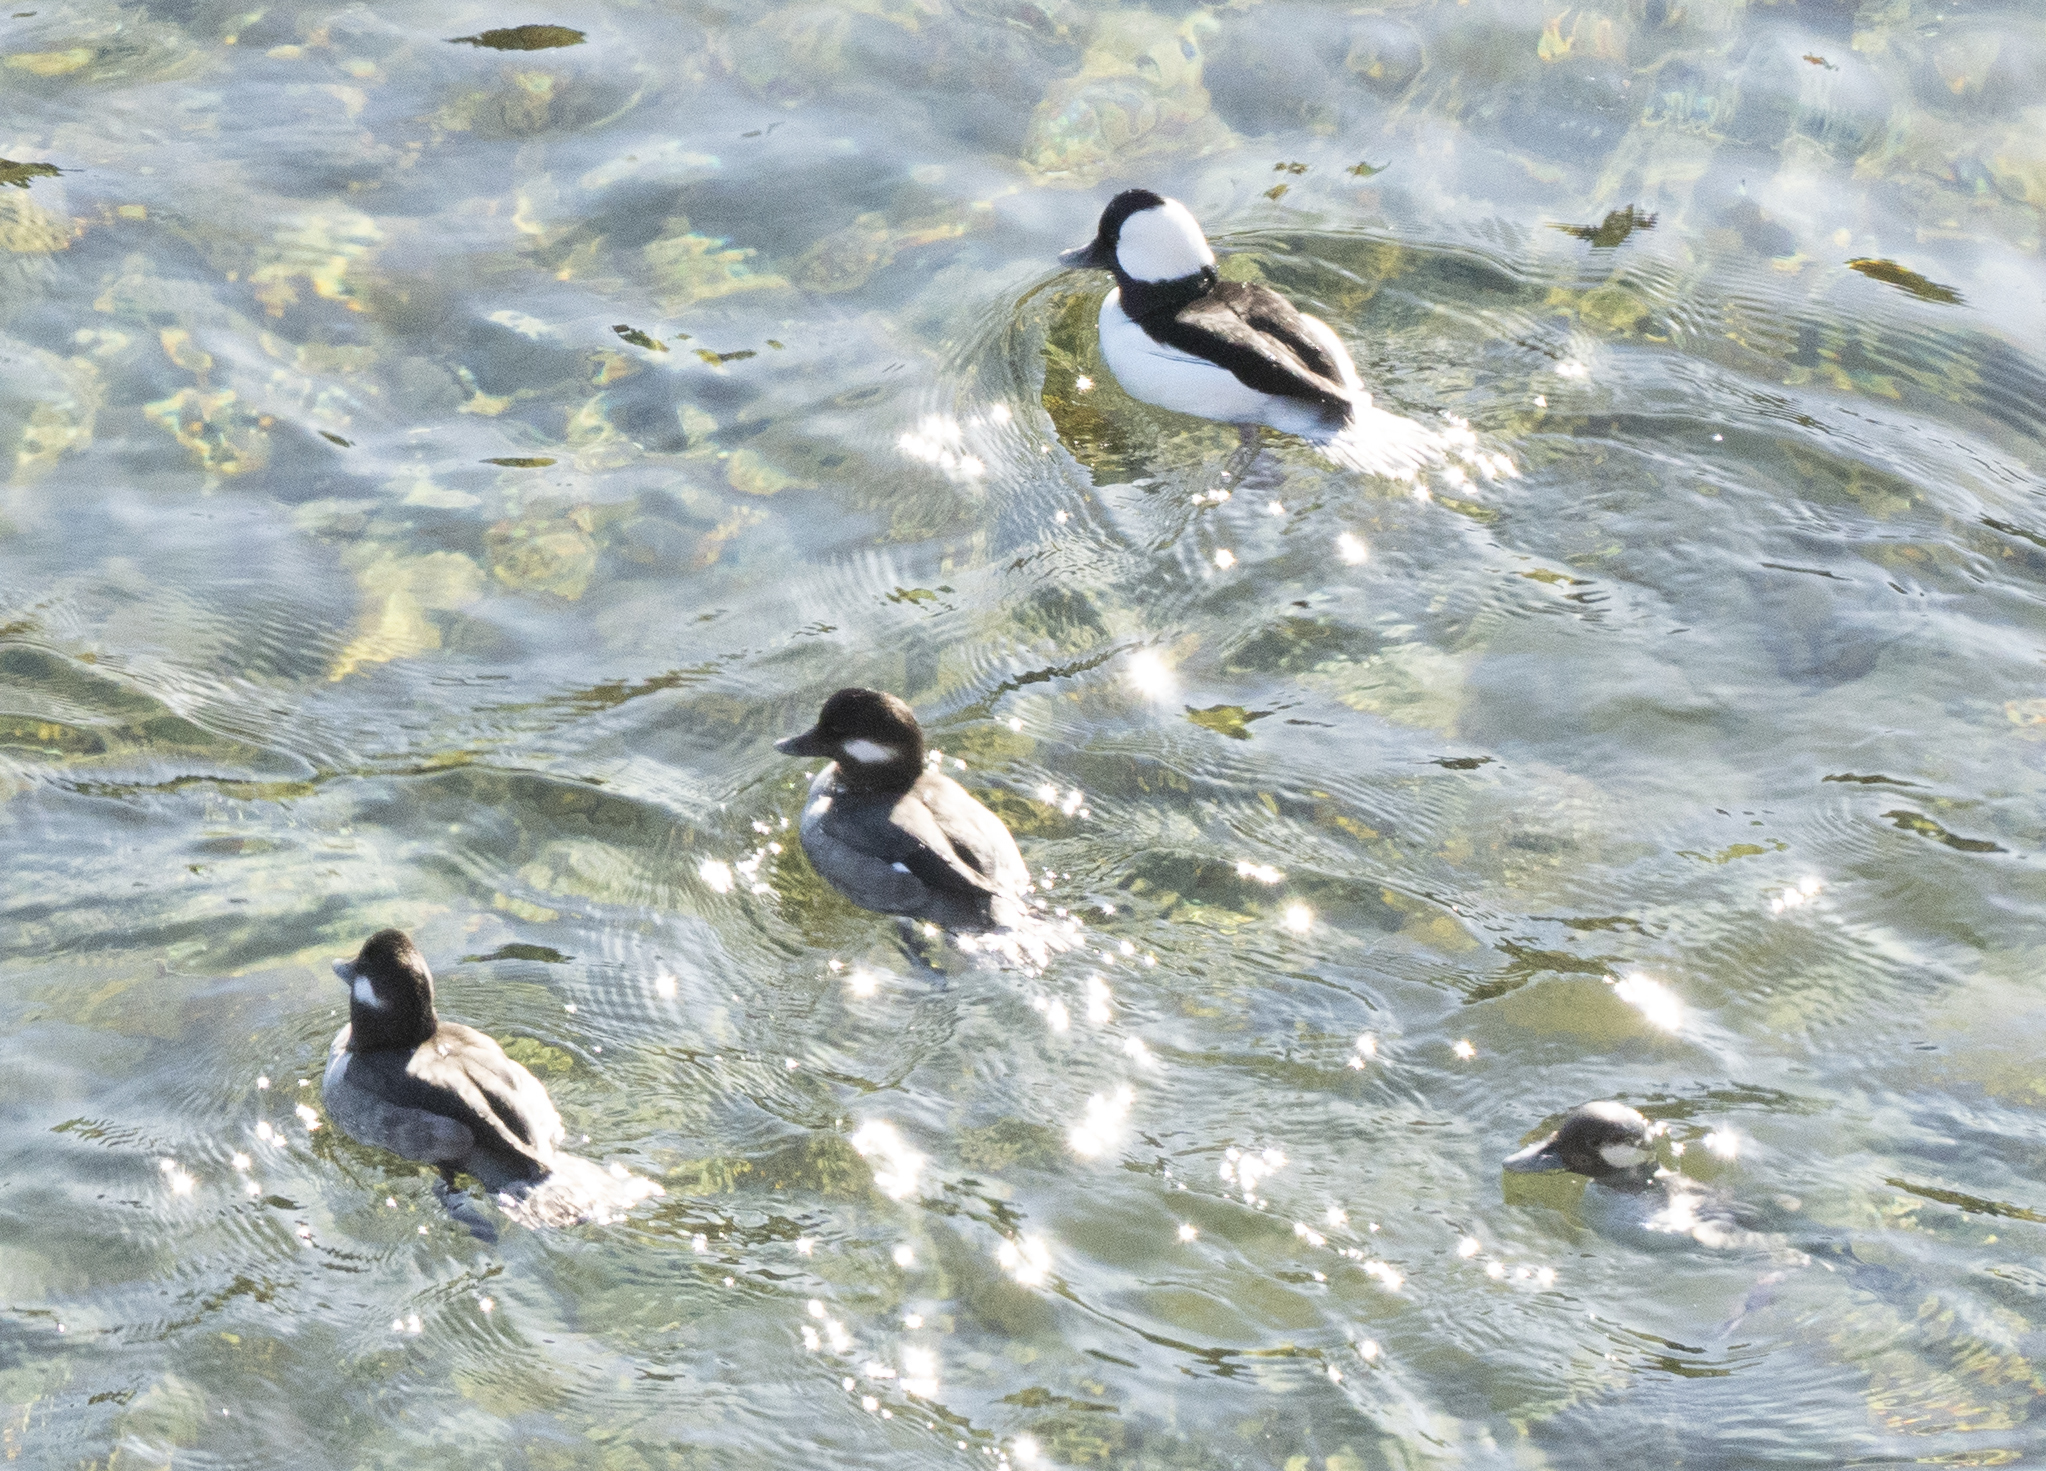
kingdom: Animalia
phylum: Chordata
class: Aves
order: Anseriformes
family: Anatidae
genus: Bucephala
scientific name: Bucephala albeola
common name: Bufflehead
